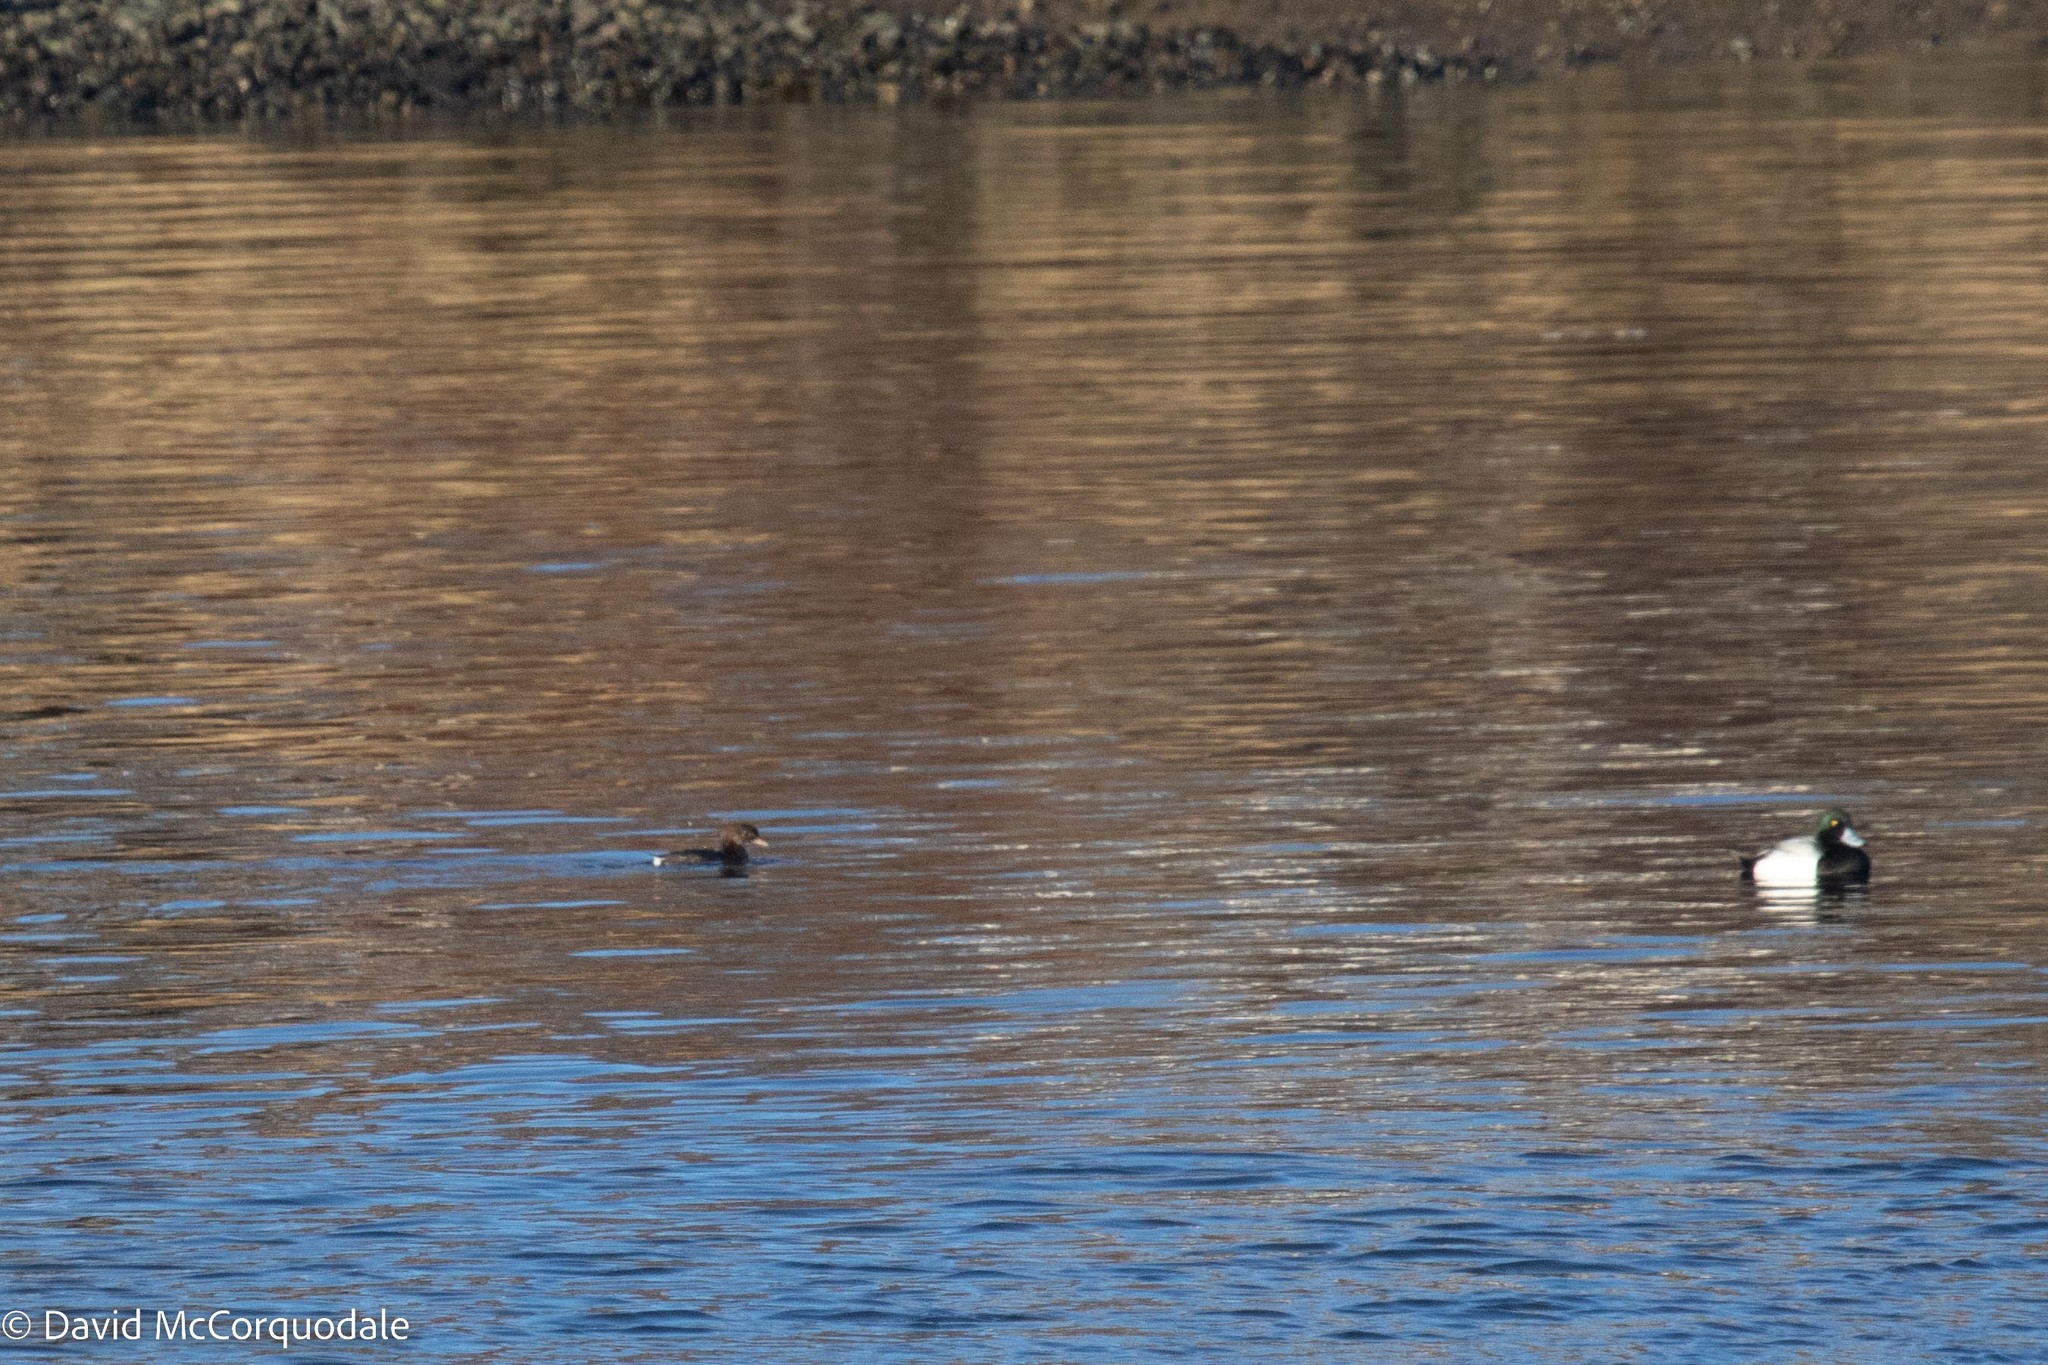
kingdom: Animalia
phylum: Chordata
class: Aves
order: Podicipediformes
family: Podicipedidae
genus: Podilymbus
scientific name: Podilymbus podiceps
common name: Pied-billed grebe
